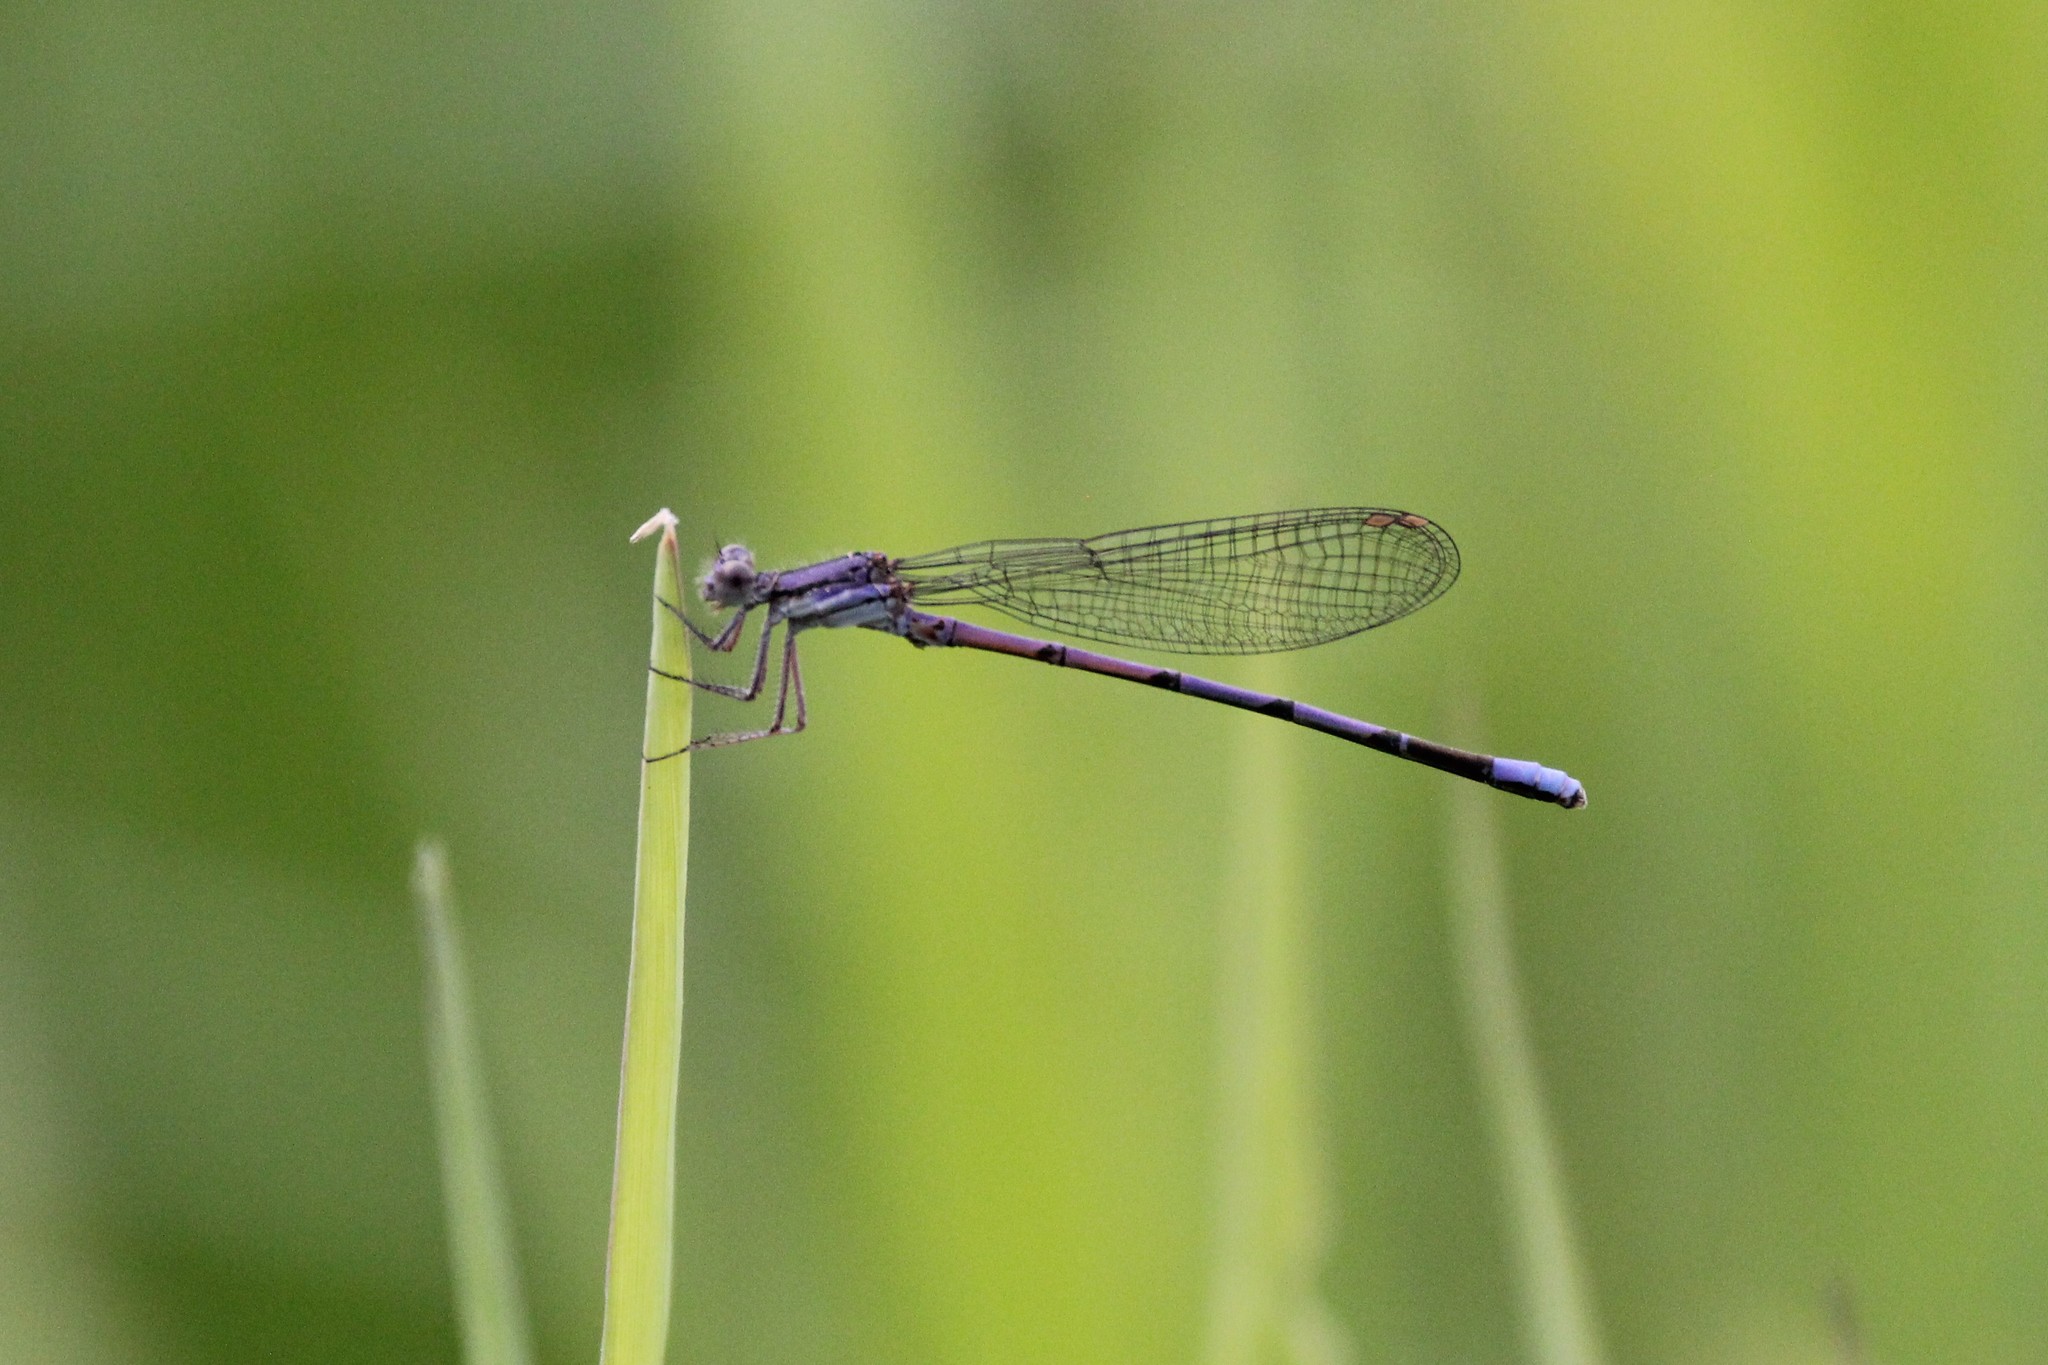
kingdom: Animalia
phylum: Arthropoda
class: Insecta
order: Odonata
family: Coenagrionidae
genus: Argia
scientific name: Argia fumipennis
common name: Variable dancer
